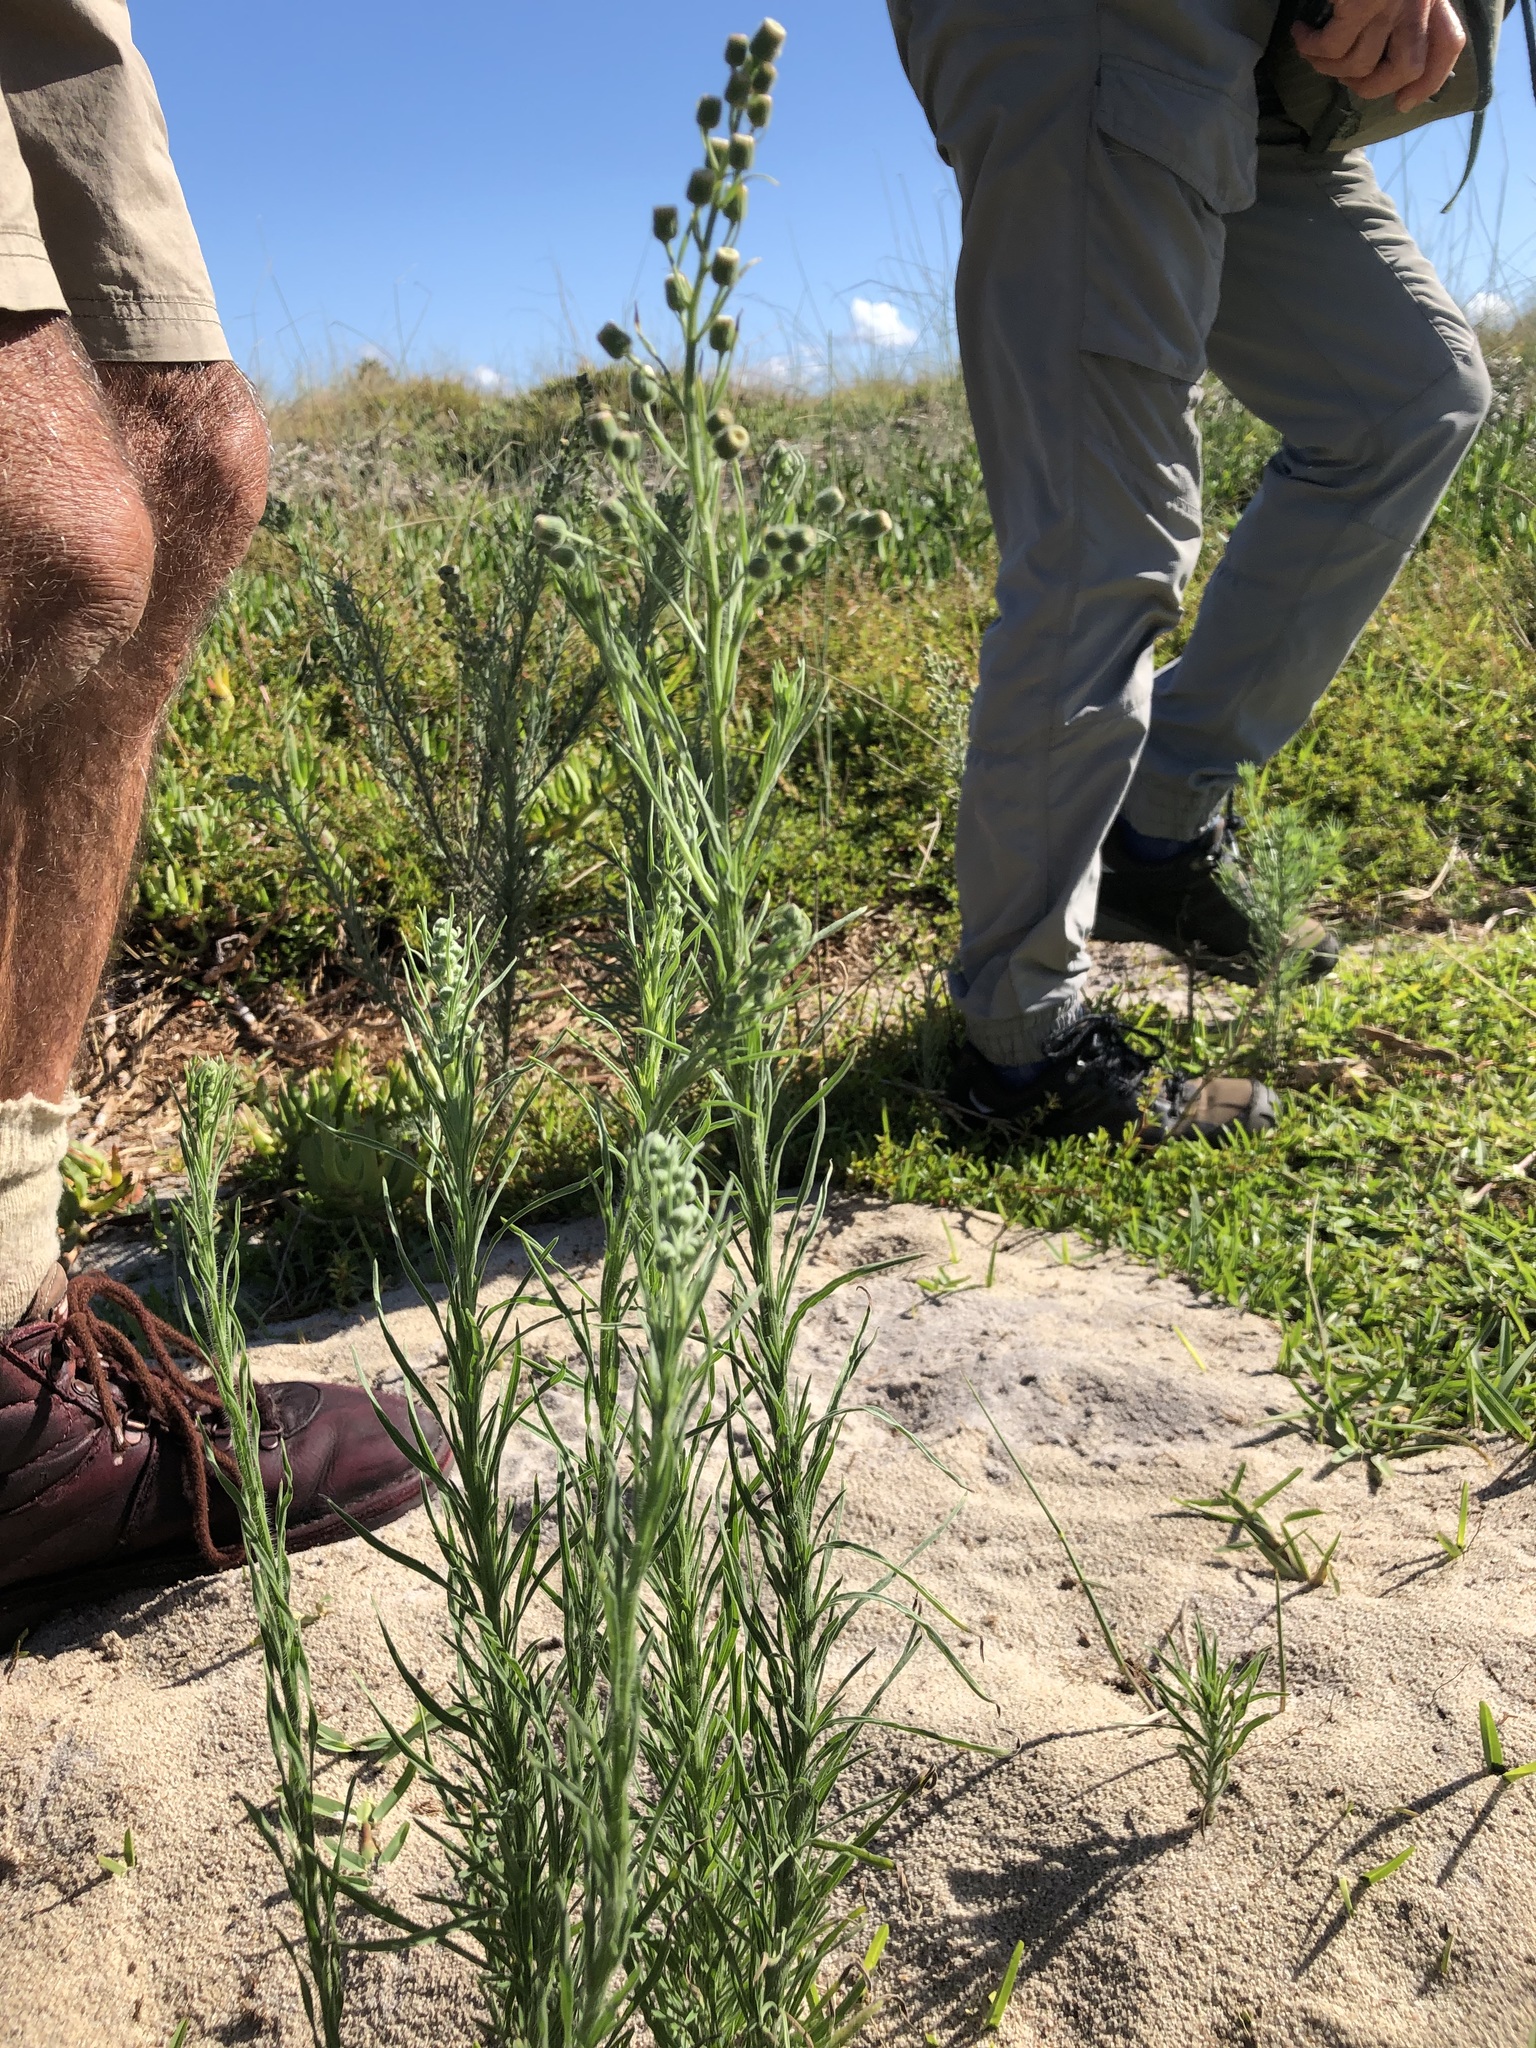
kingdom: Plantae
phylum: Tracheophyta
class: Magnoliopsida
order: Asterales
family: Asteraceae
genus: Erigeron
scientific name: Erigeron bonariensis
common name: Argentine fleabane
